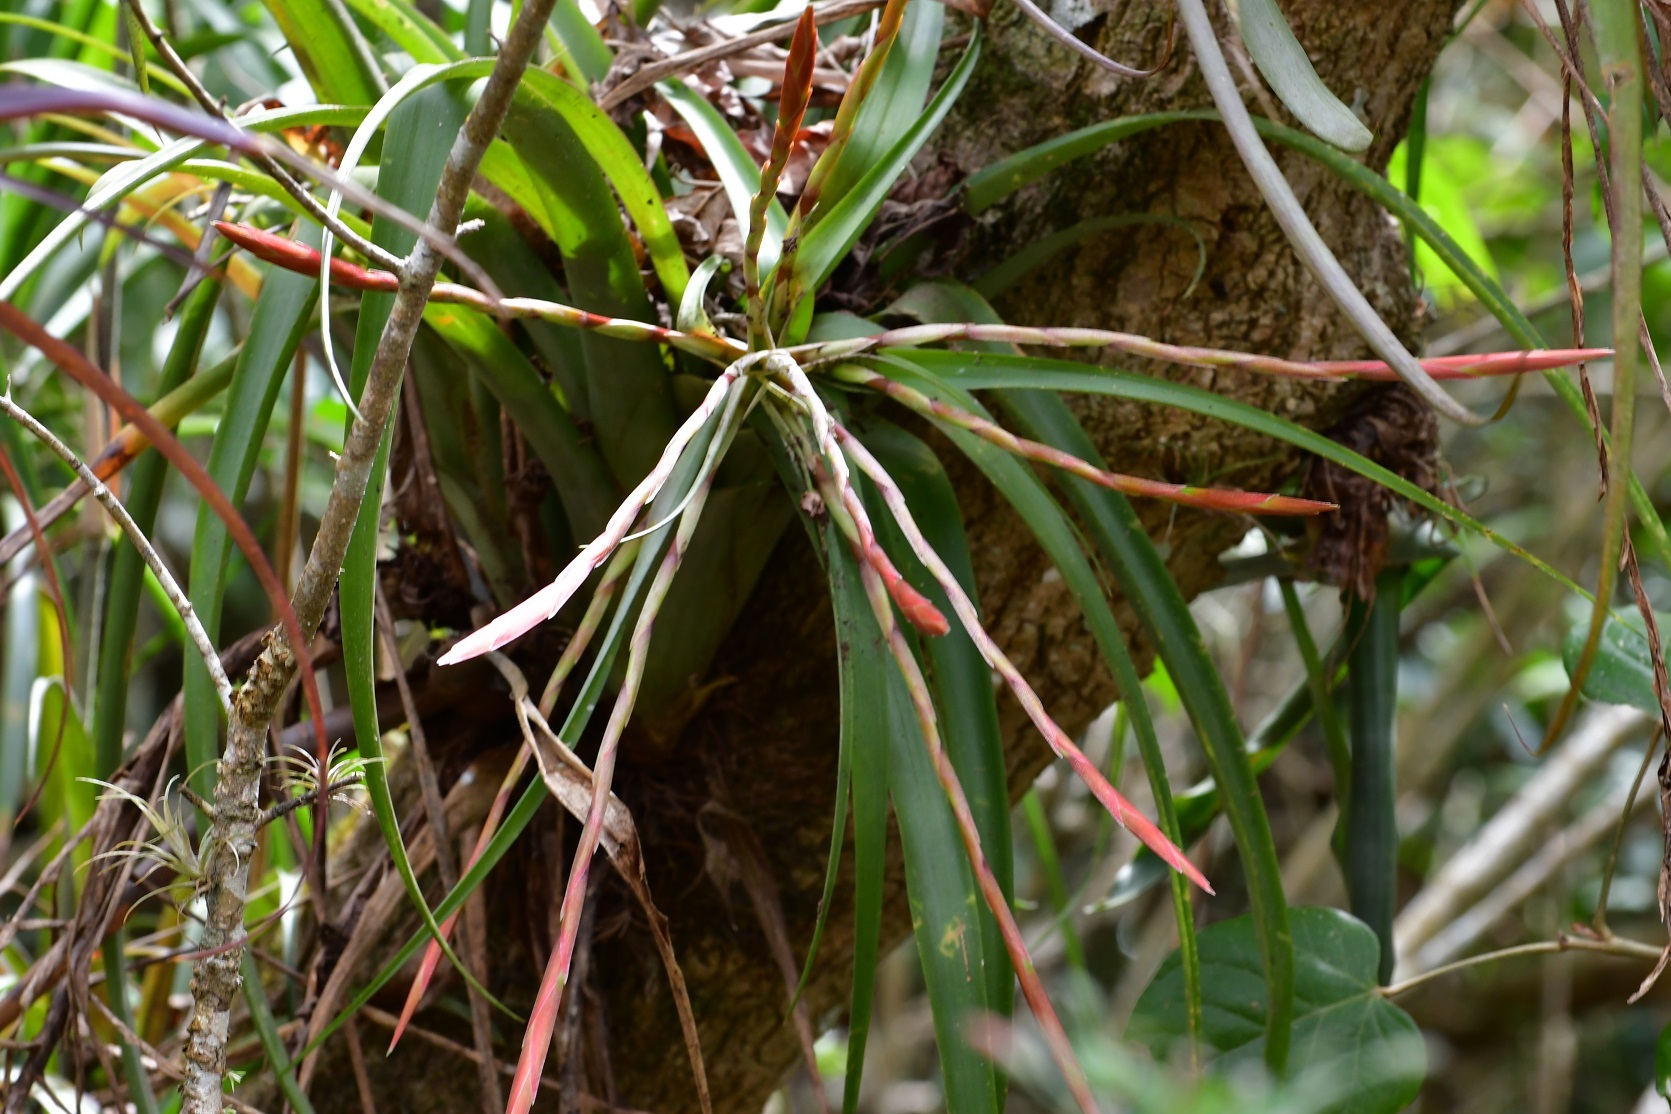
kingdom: Plantae
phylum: Tracheophyta
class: Liliopsida
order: Poales
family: Bromeliaceae
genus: Tillandsia
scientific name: Tillandsia flabellata
